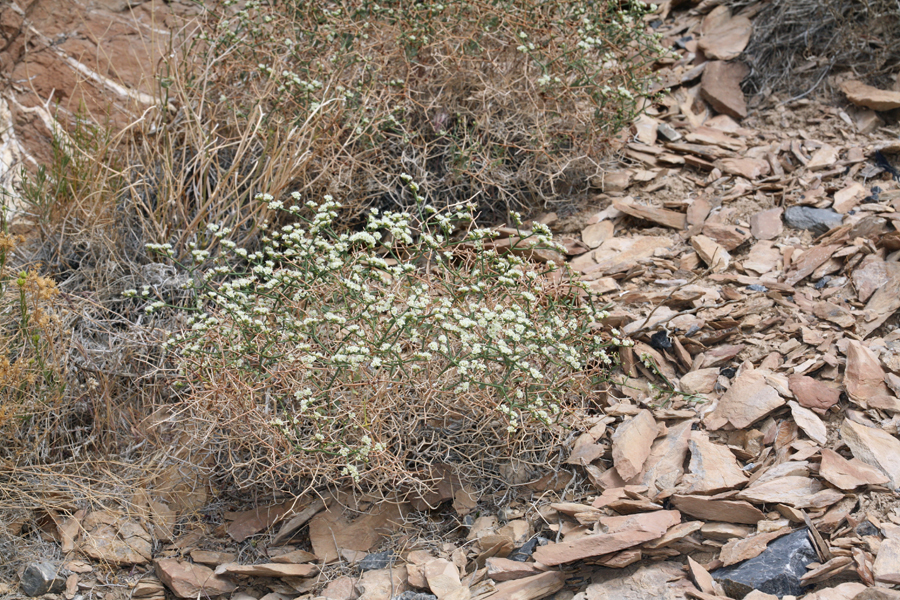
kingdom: Plantae
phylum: Tracheophyta
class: Magnoliopsida
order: Caryophyllales
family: Polygonaceae
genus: Eriogonum
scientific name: Eriogonum heermannii
